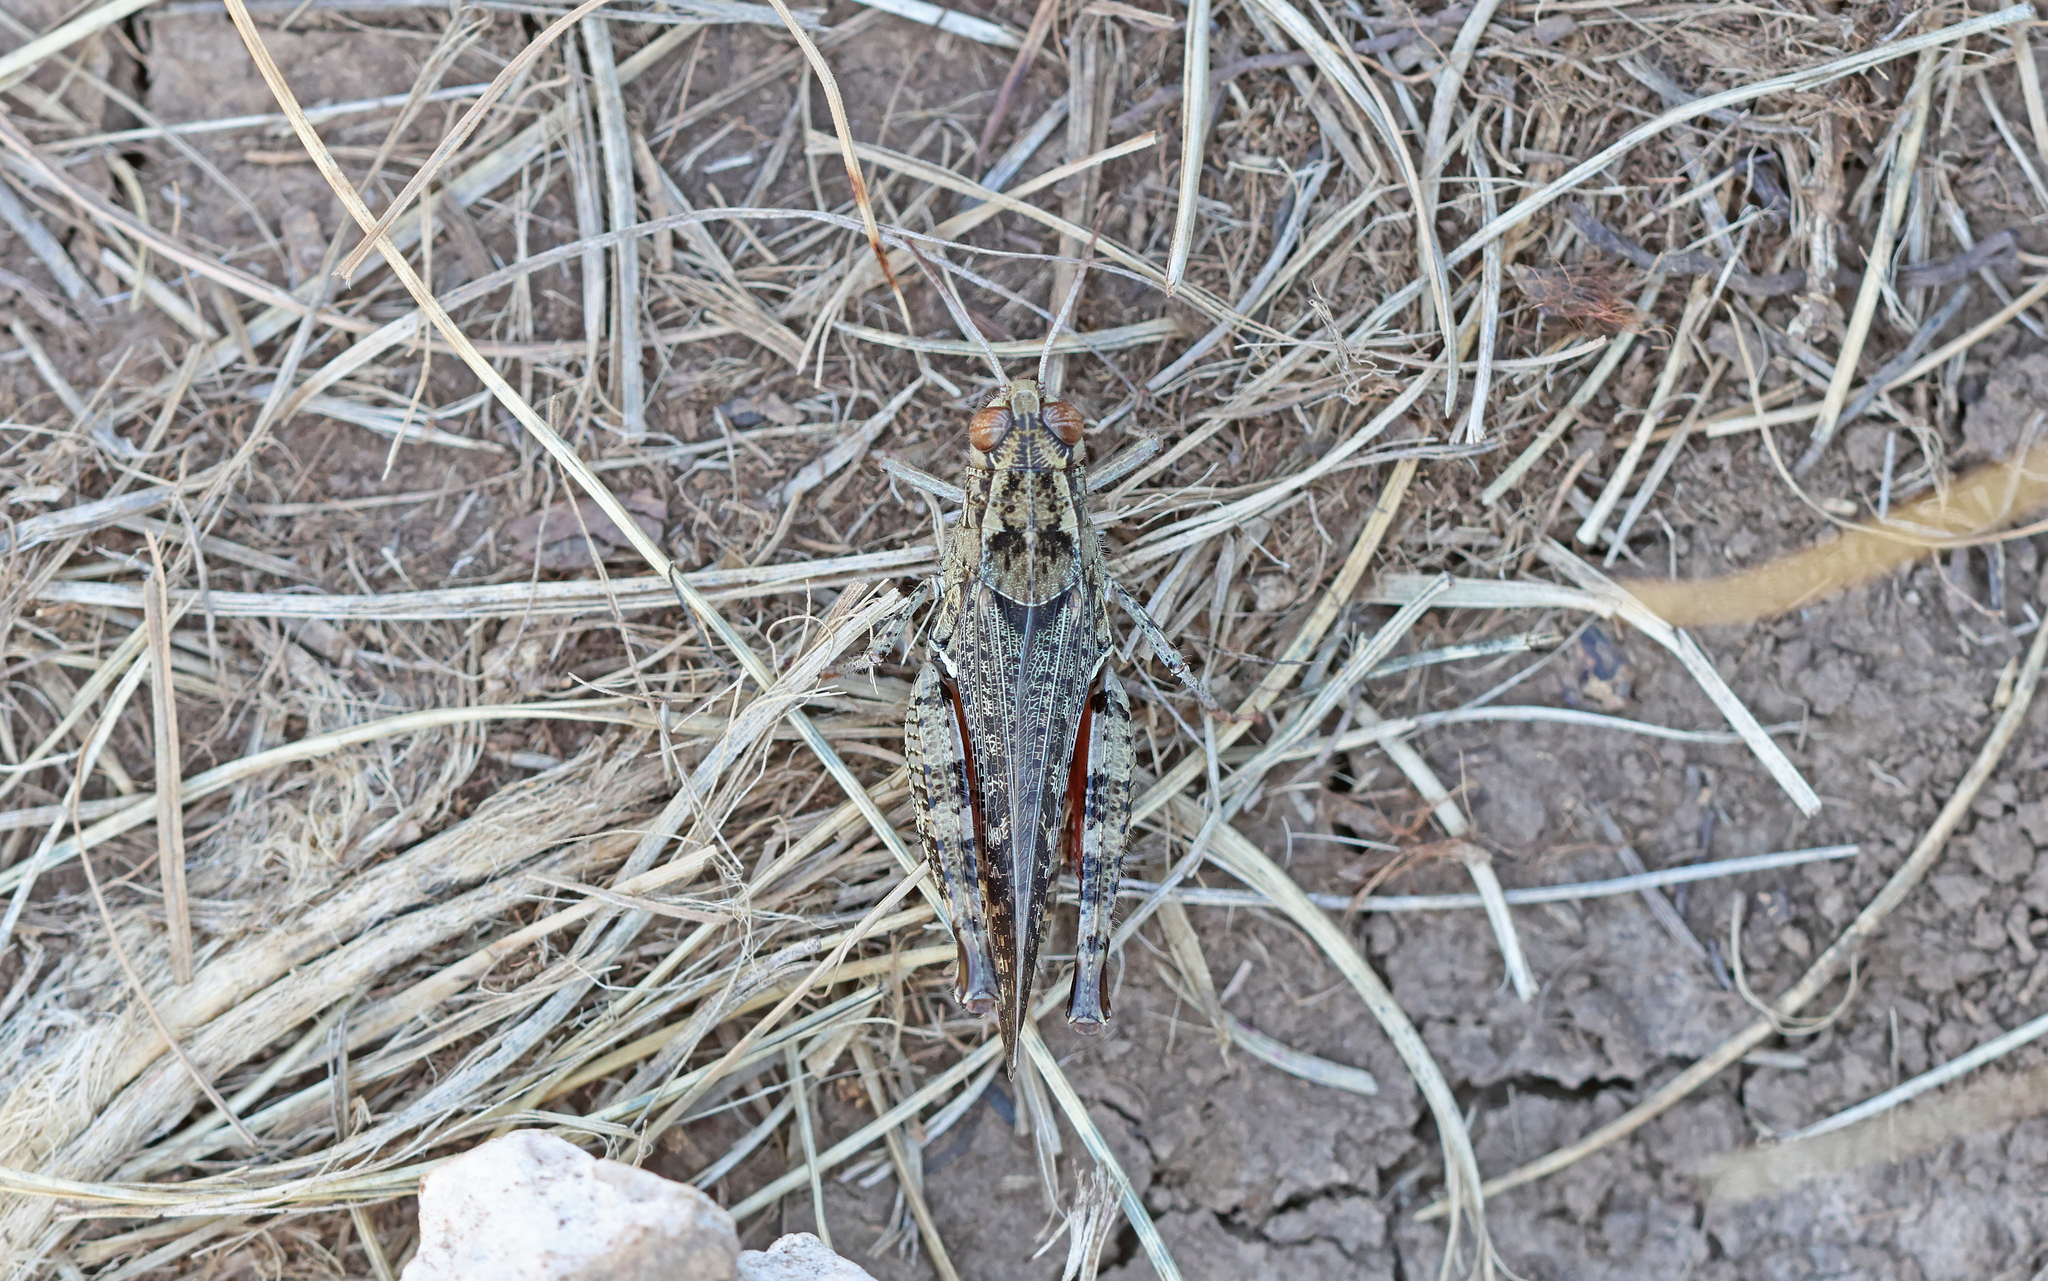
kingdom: Animalia
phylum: Arthropoda
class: Insecta
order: Orthoptera
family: Acrididae
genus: Calliptamus
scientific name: Calliptamus italicus
